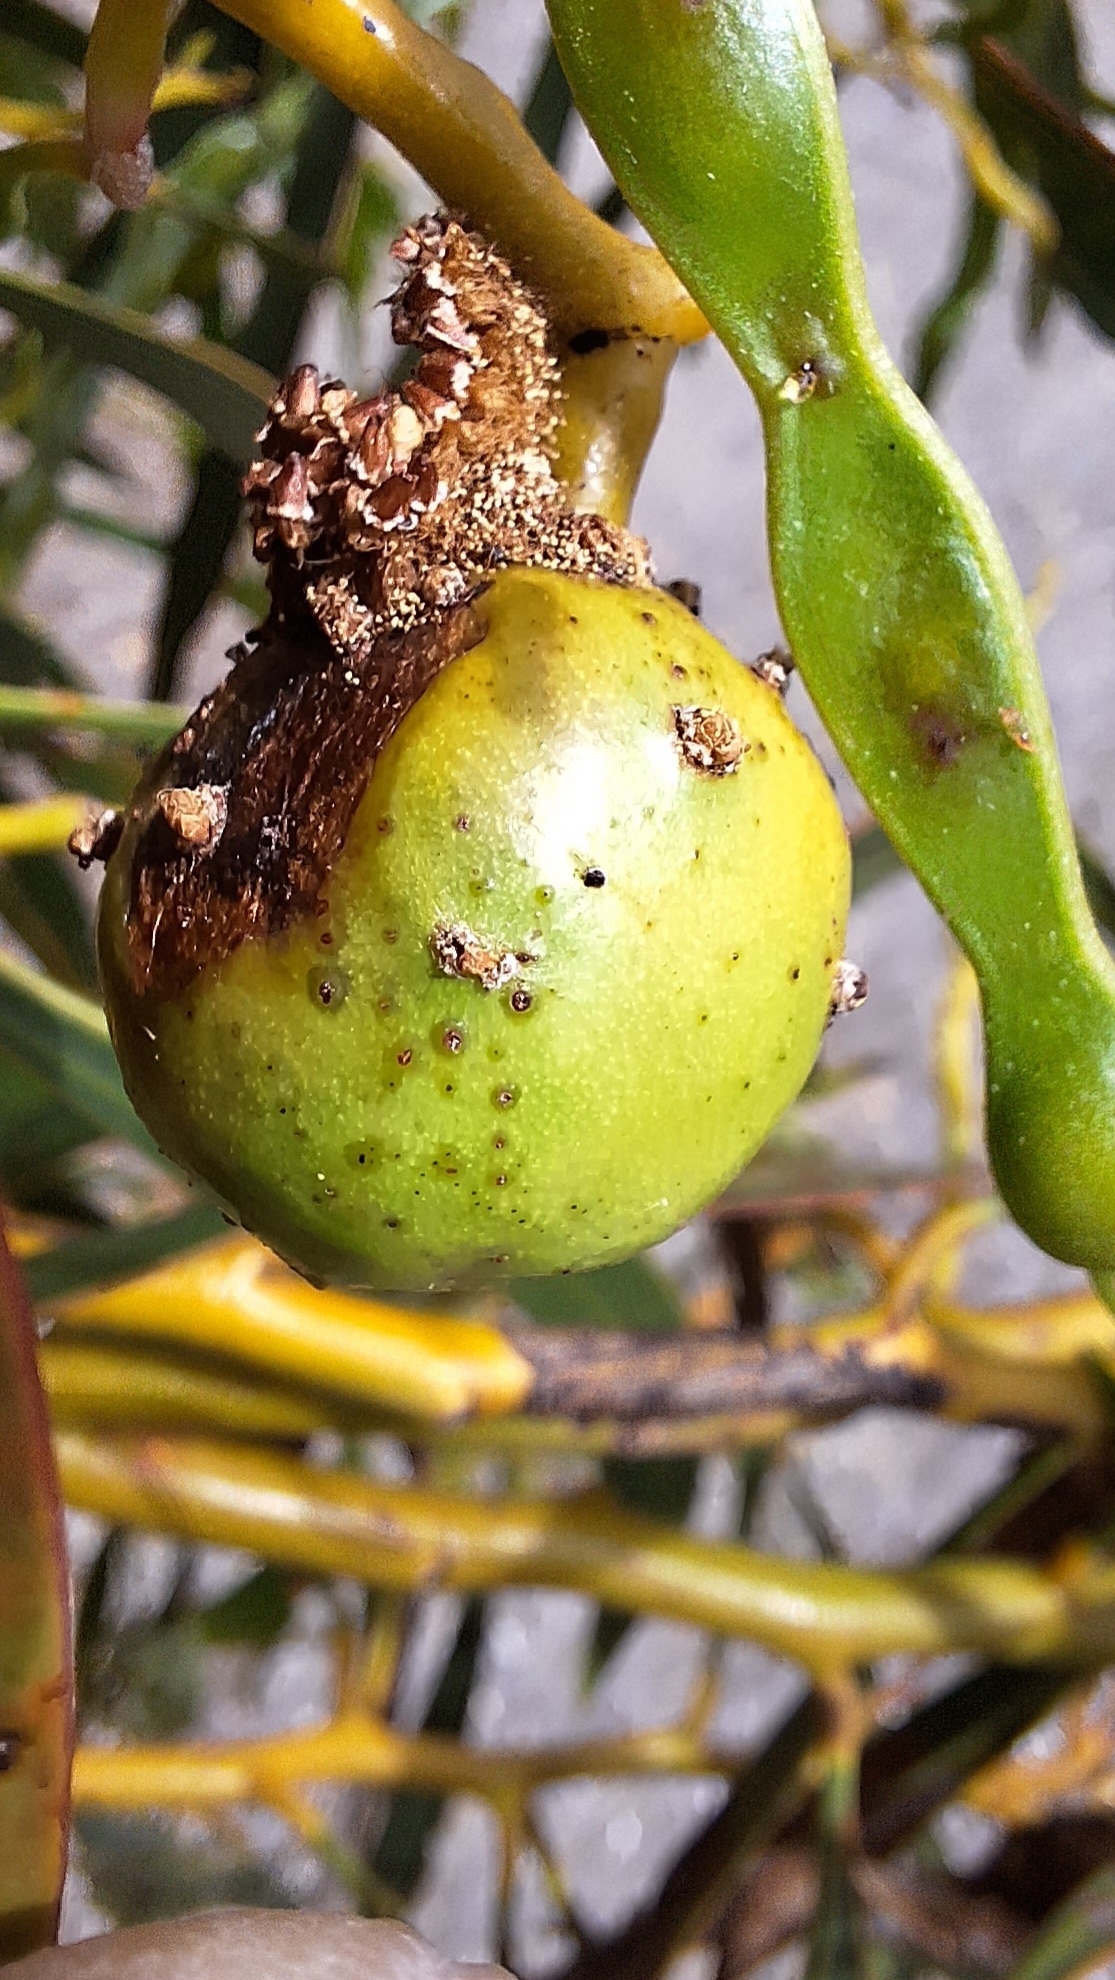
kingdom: Animalia
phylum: Arthropoda
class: Insecta
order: Hymenoptera
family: Pteromalidae
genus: Trichilogaster
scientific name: Trichilogaster signiventris
